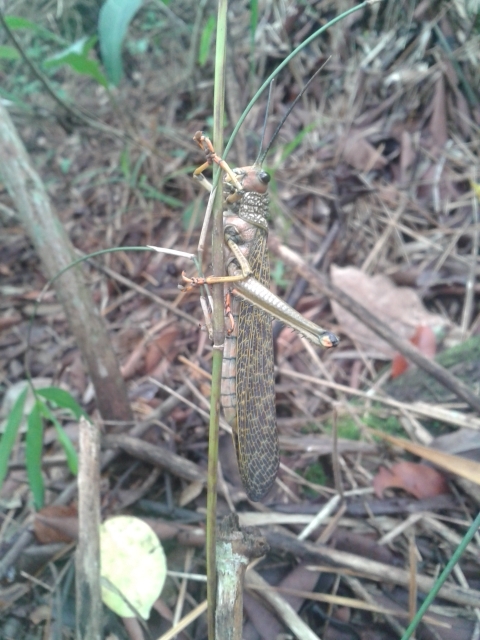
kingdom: Animalia
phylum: Arthropoda
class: Insecta
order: Orthoptera
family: Romaleidae
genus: Tropidacris
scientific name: Tropidacris cristata
